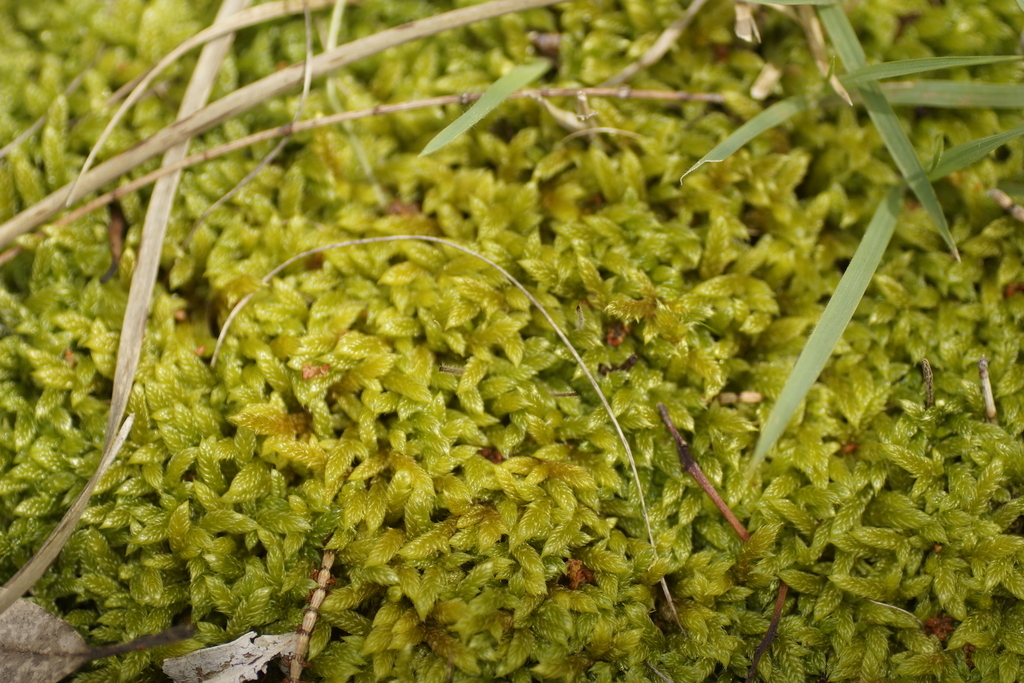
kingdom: Plantae
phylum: Bryophyta
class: Bryopsida
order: Hypnales
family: Hypnaceae
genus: Hypnum
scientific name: Hypnum cupressiforme
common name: Cypress-leaved plait-moss
